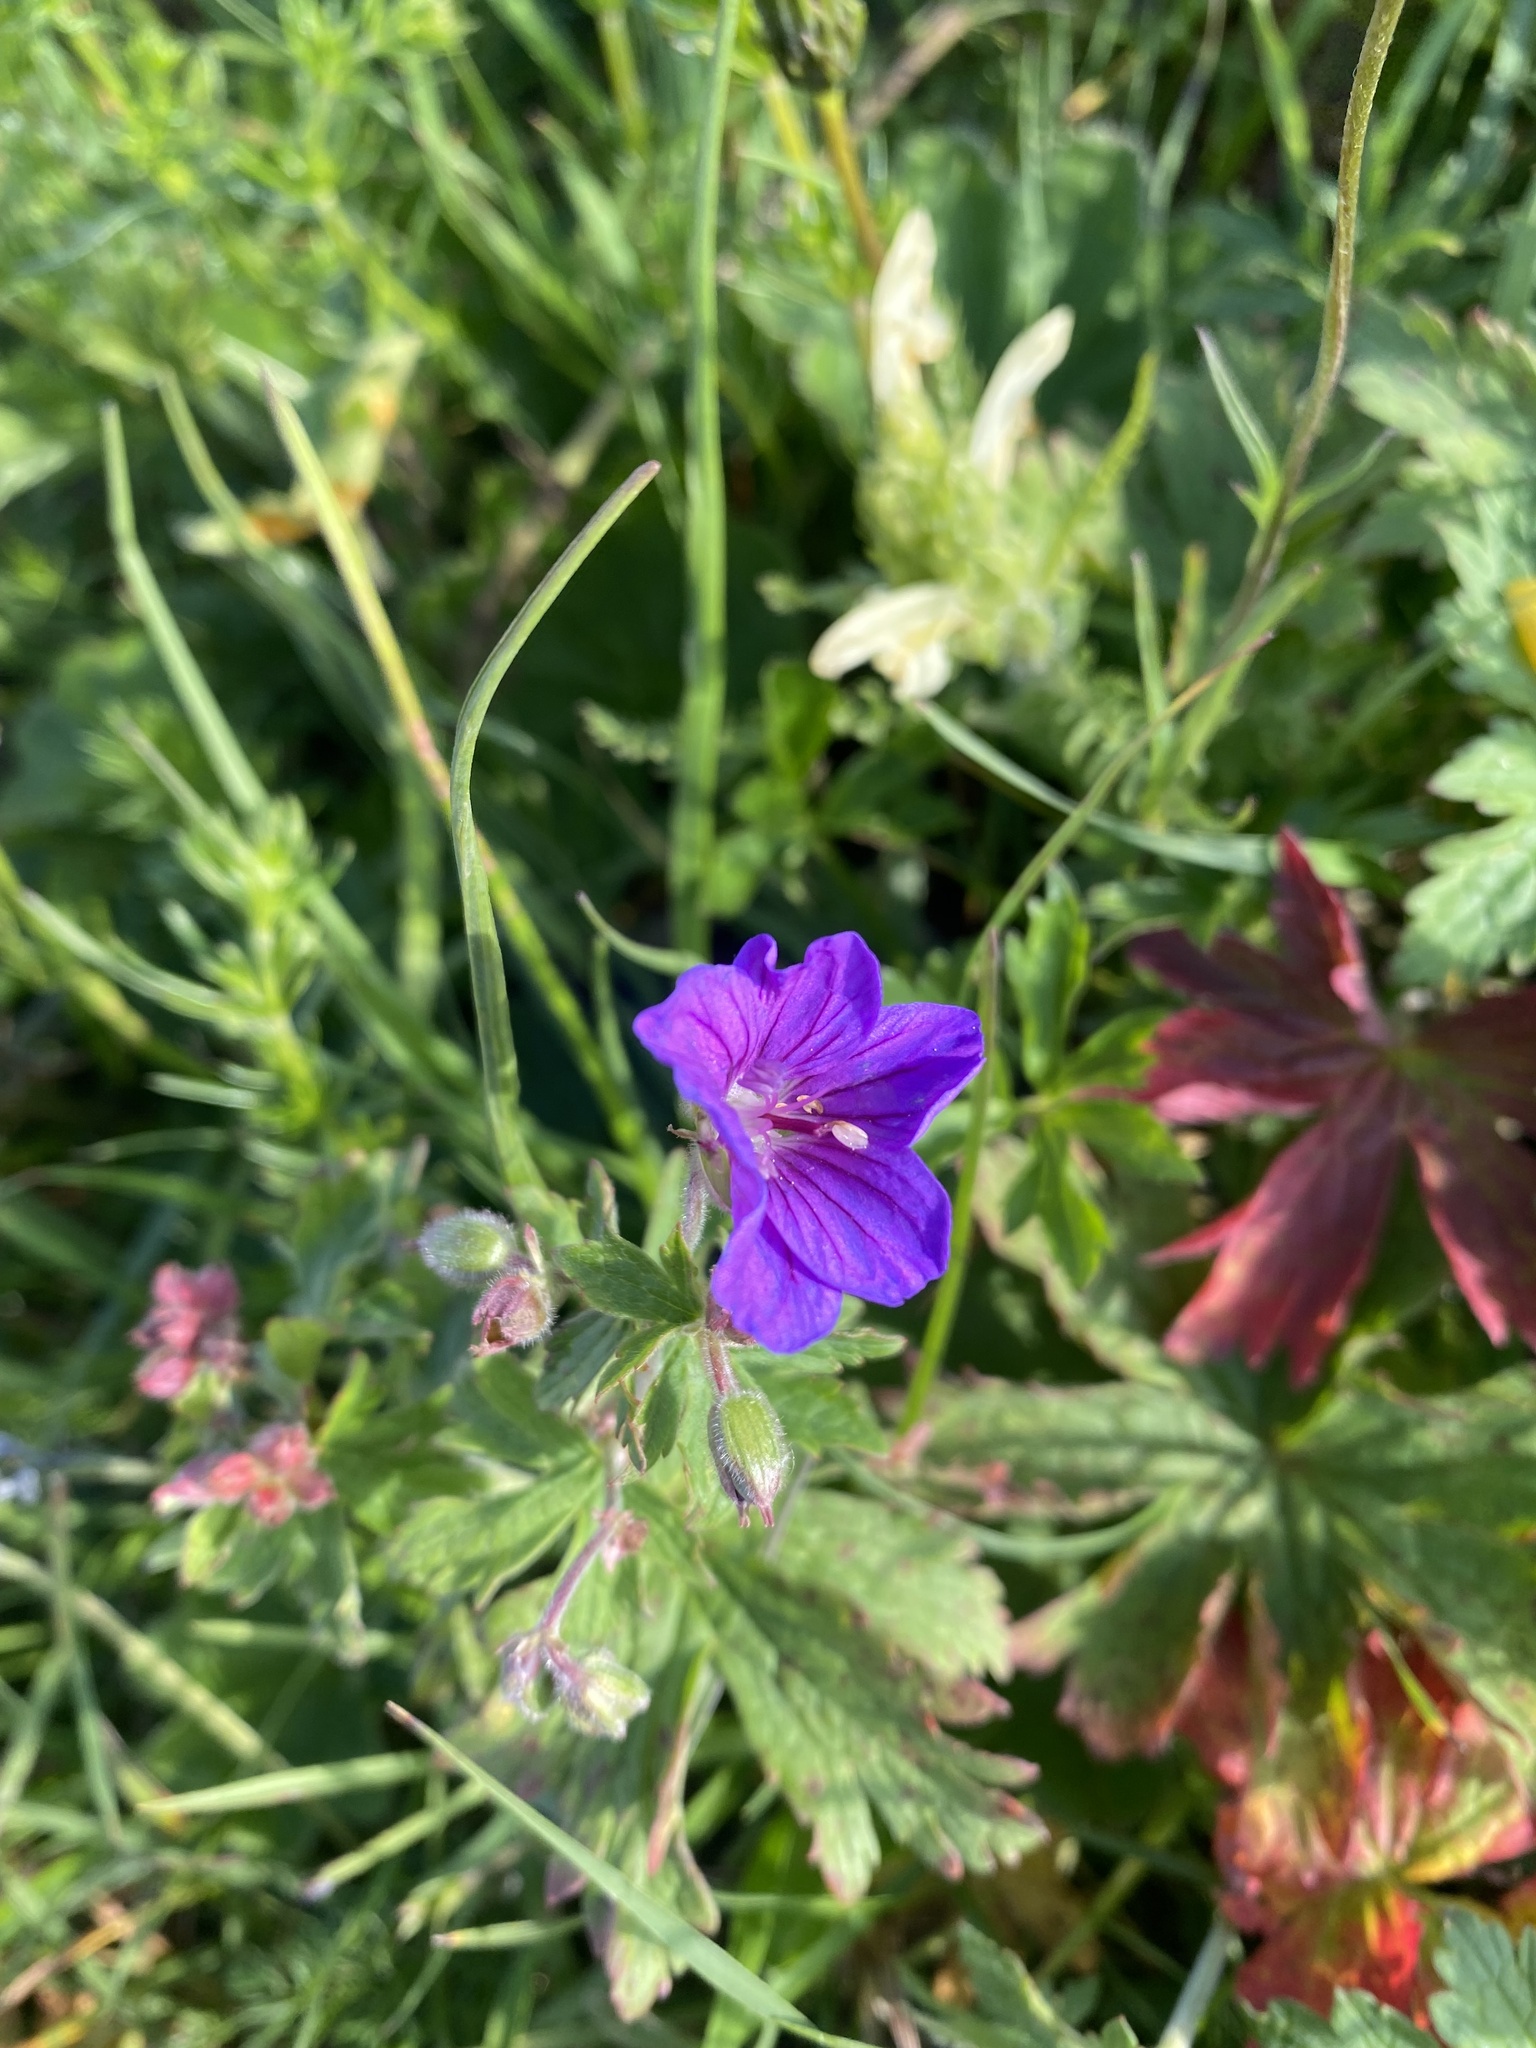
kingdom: Plantae
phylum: Tracheophyta
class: Magnoliopsida
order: Geraniales
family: Geraniaceae
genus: Geranium
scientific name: Geranium sylvaticum
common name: Wood crane's-bill
